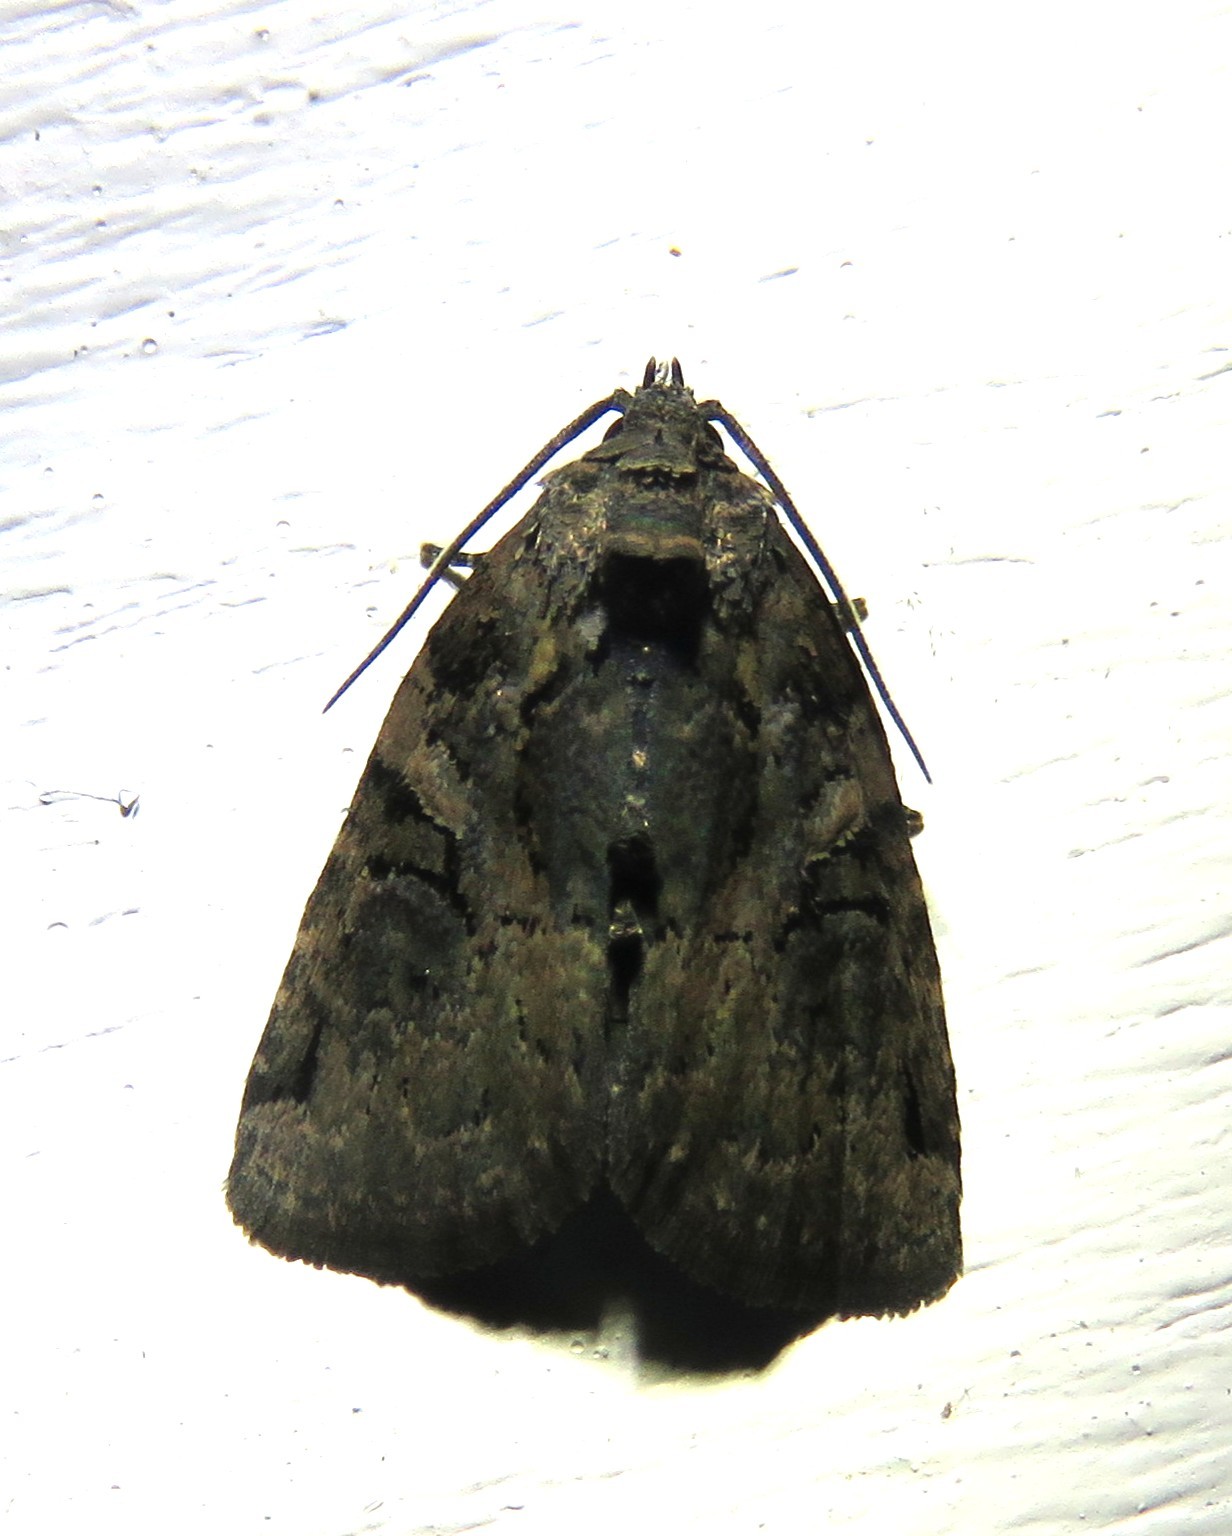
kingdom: Animalia
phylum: Arthropoda
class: Insecta
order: Lepidoptera
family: Noctuidae
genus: Pseudeustrotia
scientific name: Pseudeustrotia indeterminata
